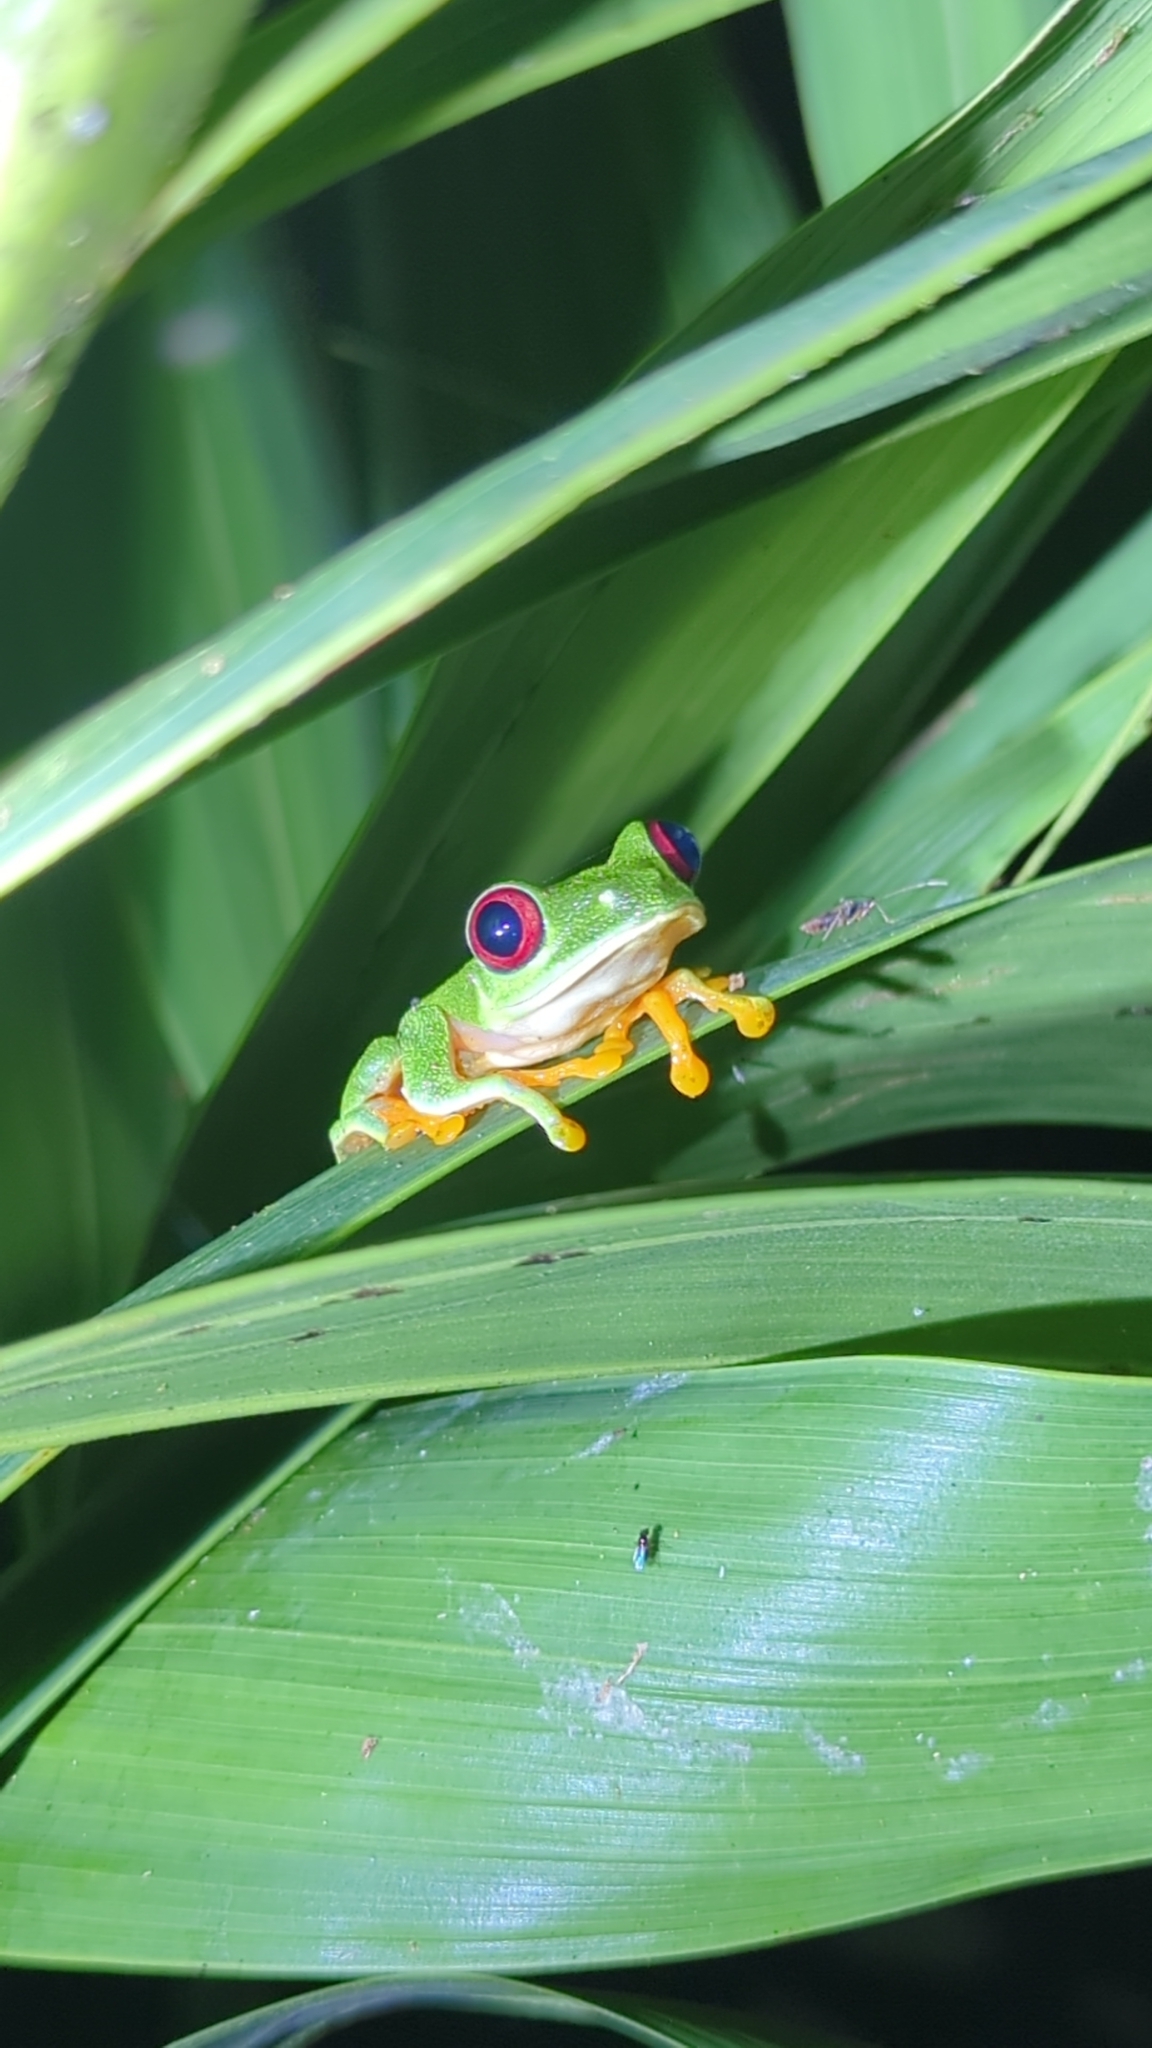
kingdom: Animalia
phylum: Chordata
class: Amphibia
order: Anura
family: Phyllomedusidae
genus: Agalychnis
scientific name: Agalychnis callidryas
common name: Red-eyed treefrog
